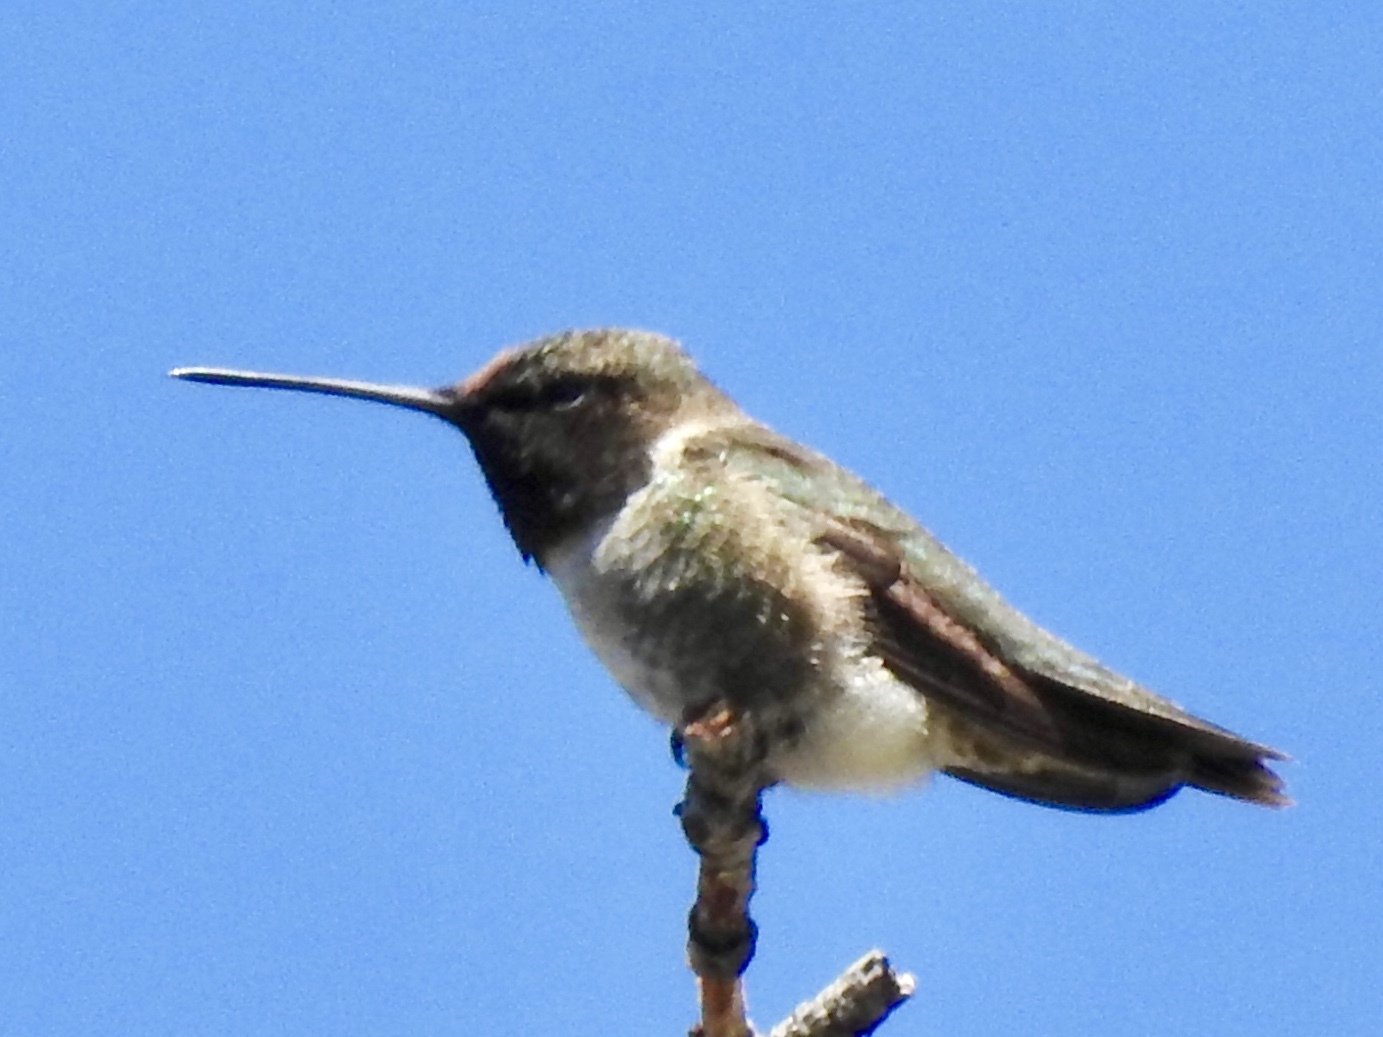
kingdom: Animalia
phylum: Chordata
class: Aves
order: Apodiformes
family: Trochilidae
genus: Archilochus
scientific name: Archilochus alexandri
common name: Black-chinned hummingbird
